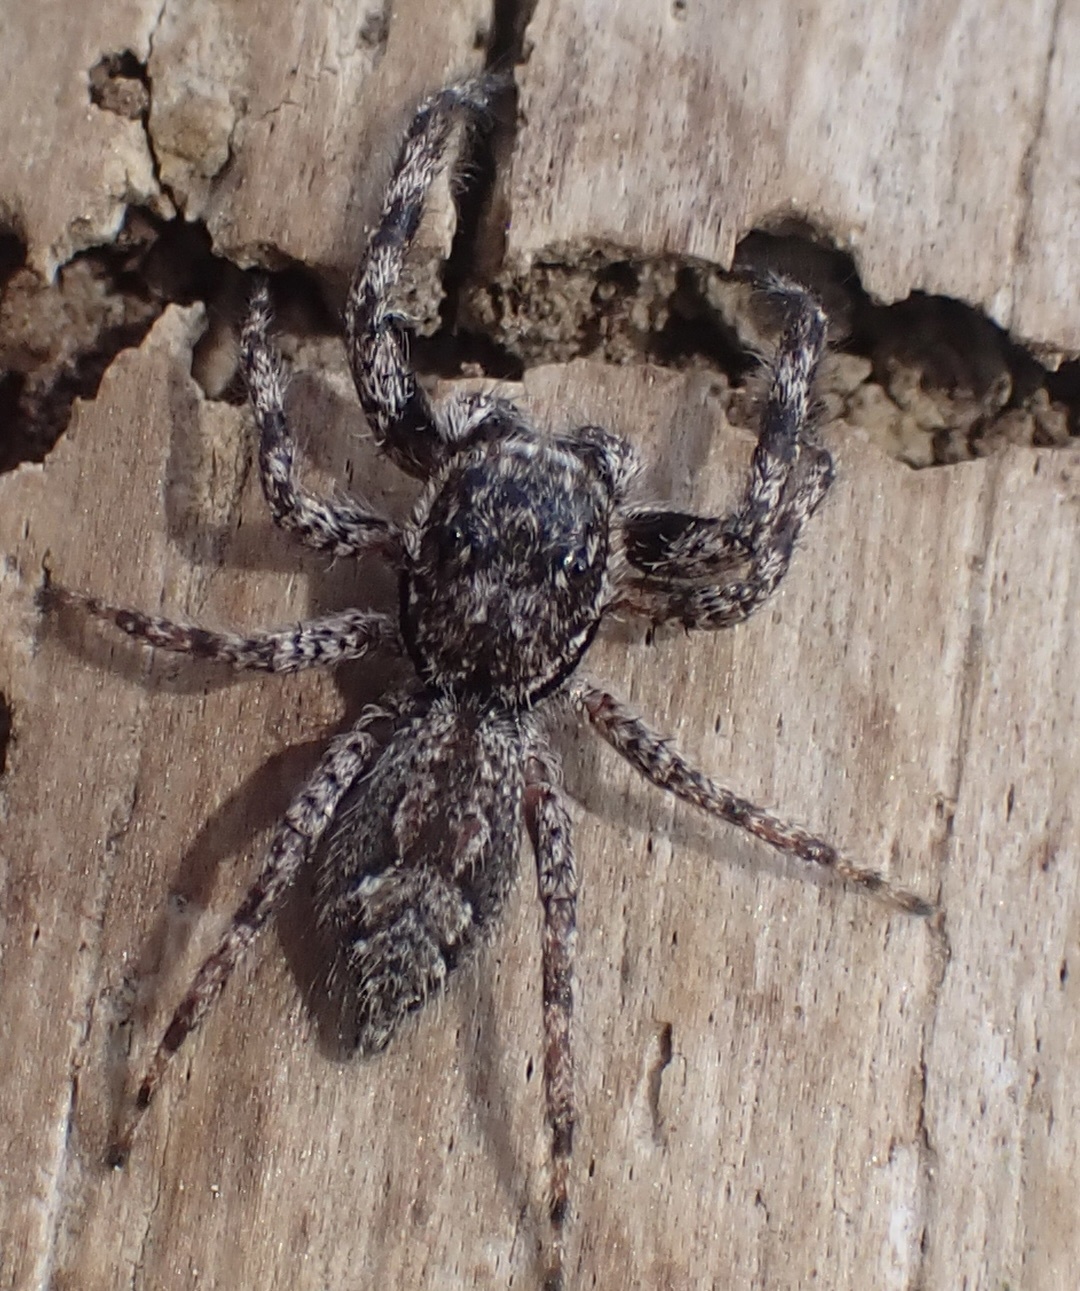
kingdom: Animalia
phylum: Arthropoda
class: Arachnida
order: Araneae
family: Salticidae
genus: Platycryptus
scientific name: Platycryptus undatus
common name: Tan jumping spider
